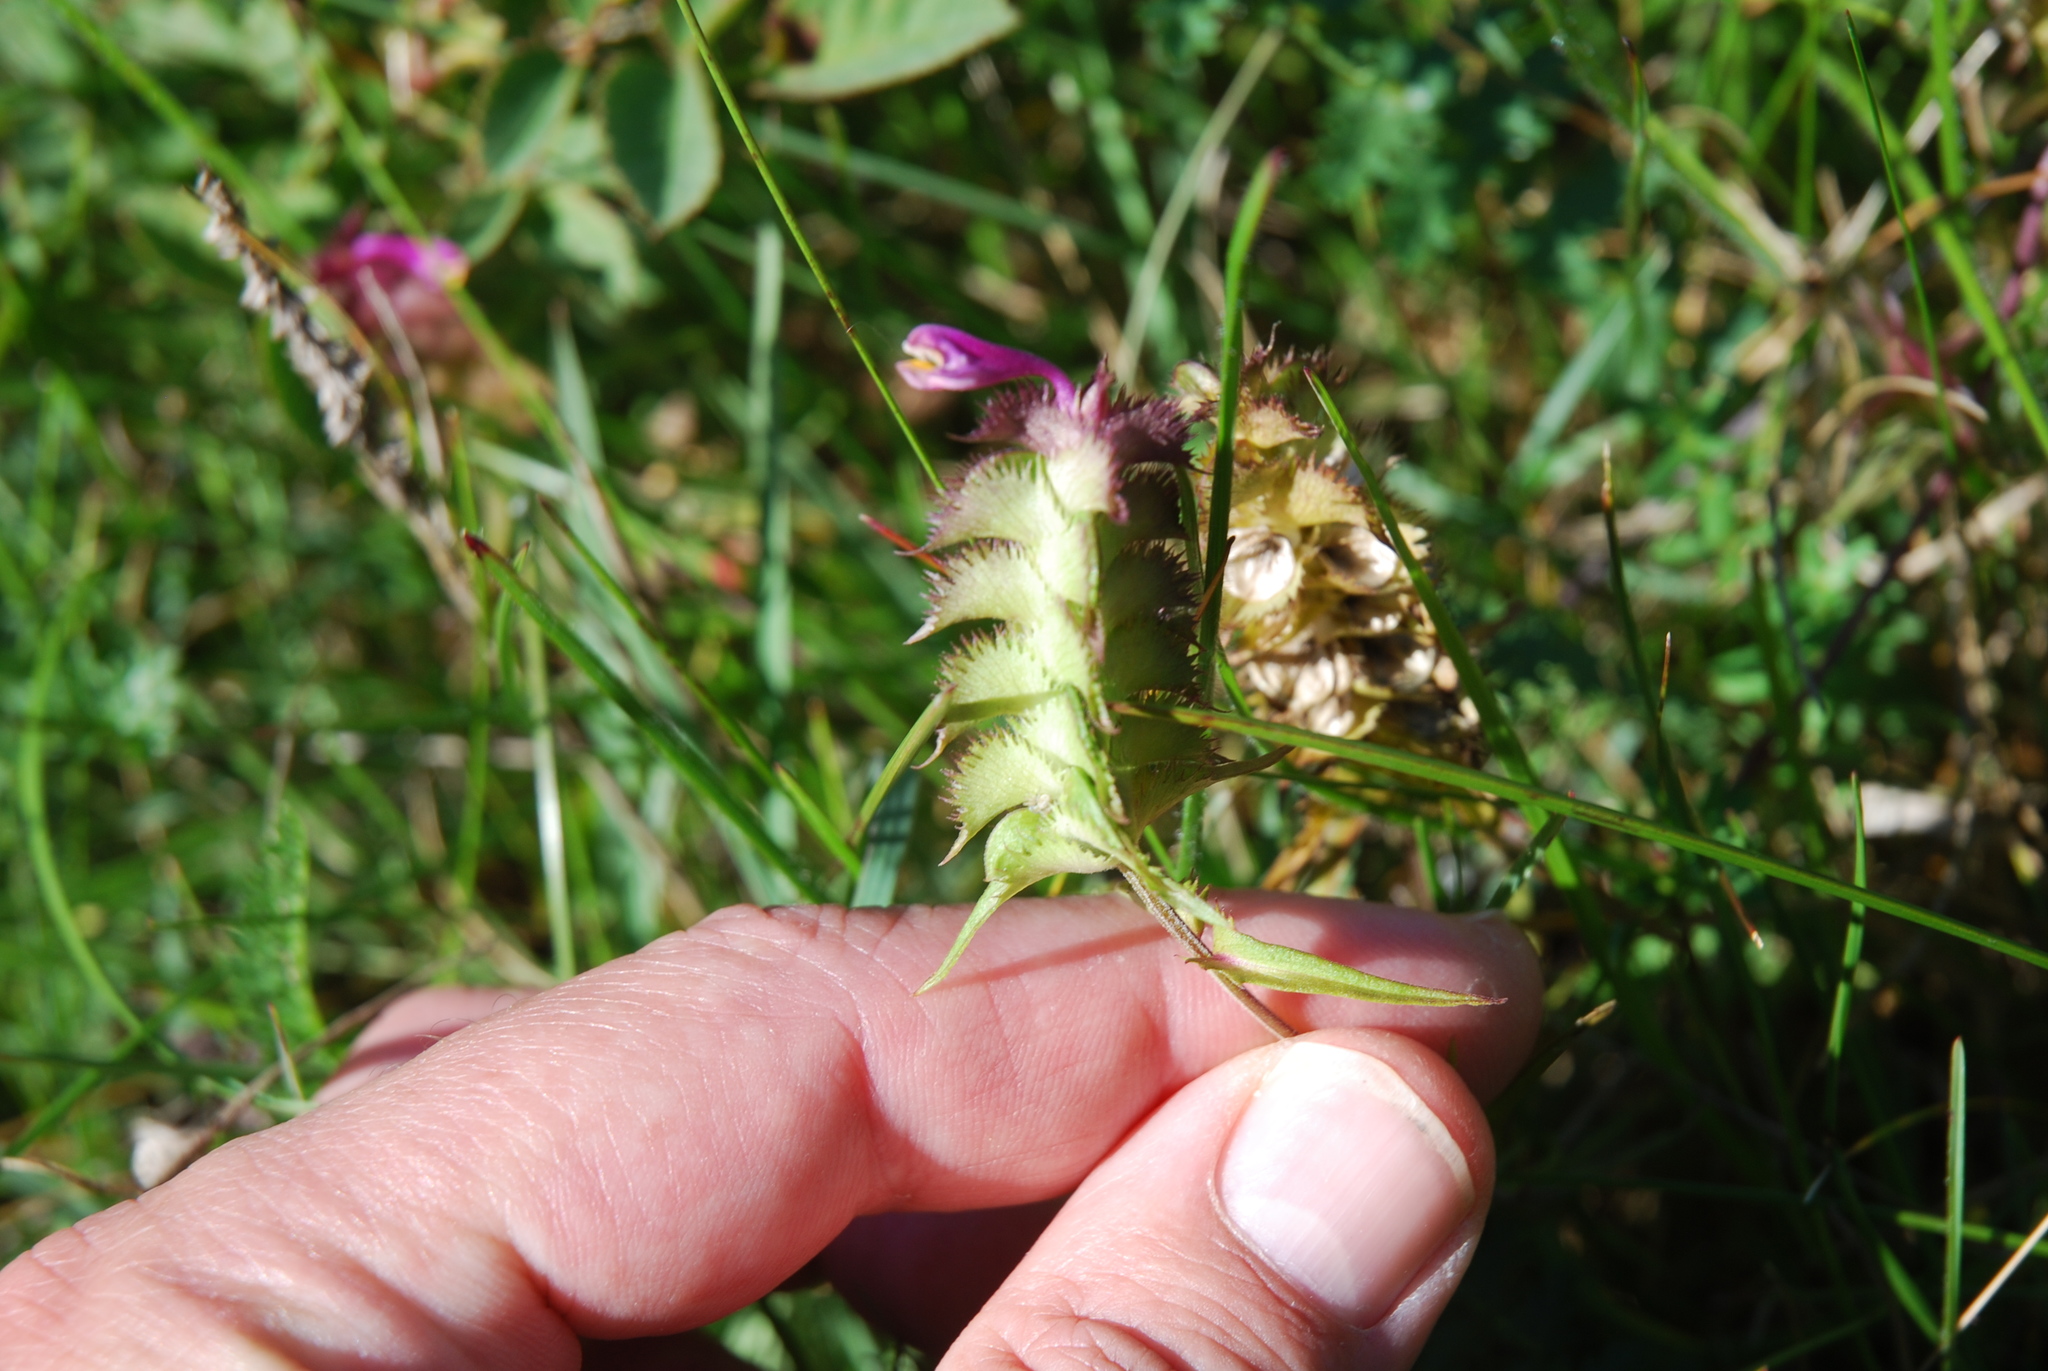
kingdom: Plantae
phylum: Tracheophyta
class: Magnoliopsida
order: Lamiales
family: Orobanchaceae
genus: Melampyrum
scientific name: Melampyrum cristatum
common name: Crested cow-wheat
